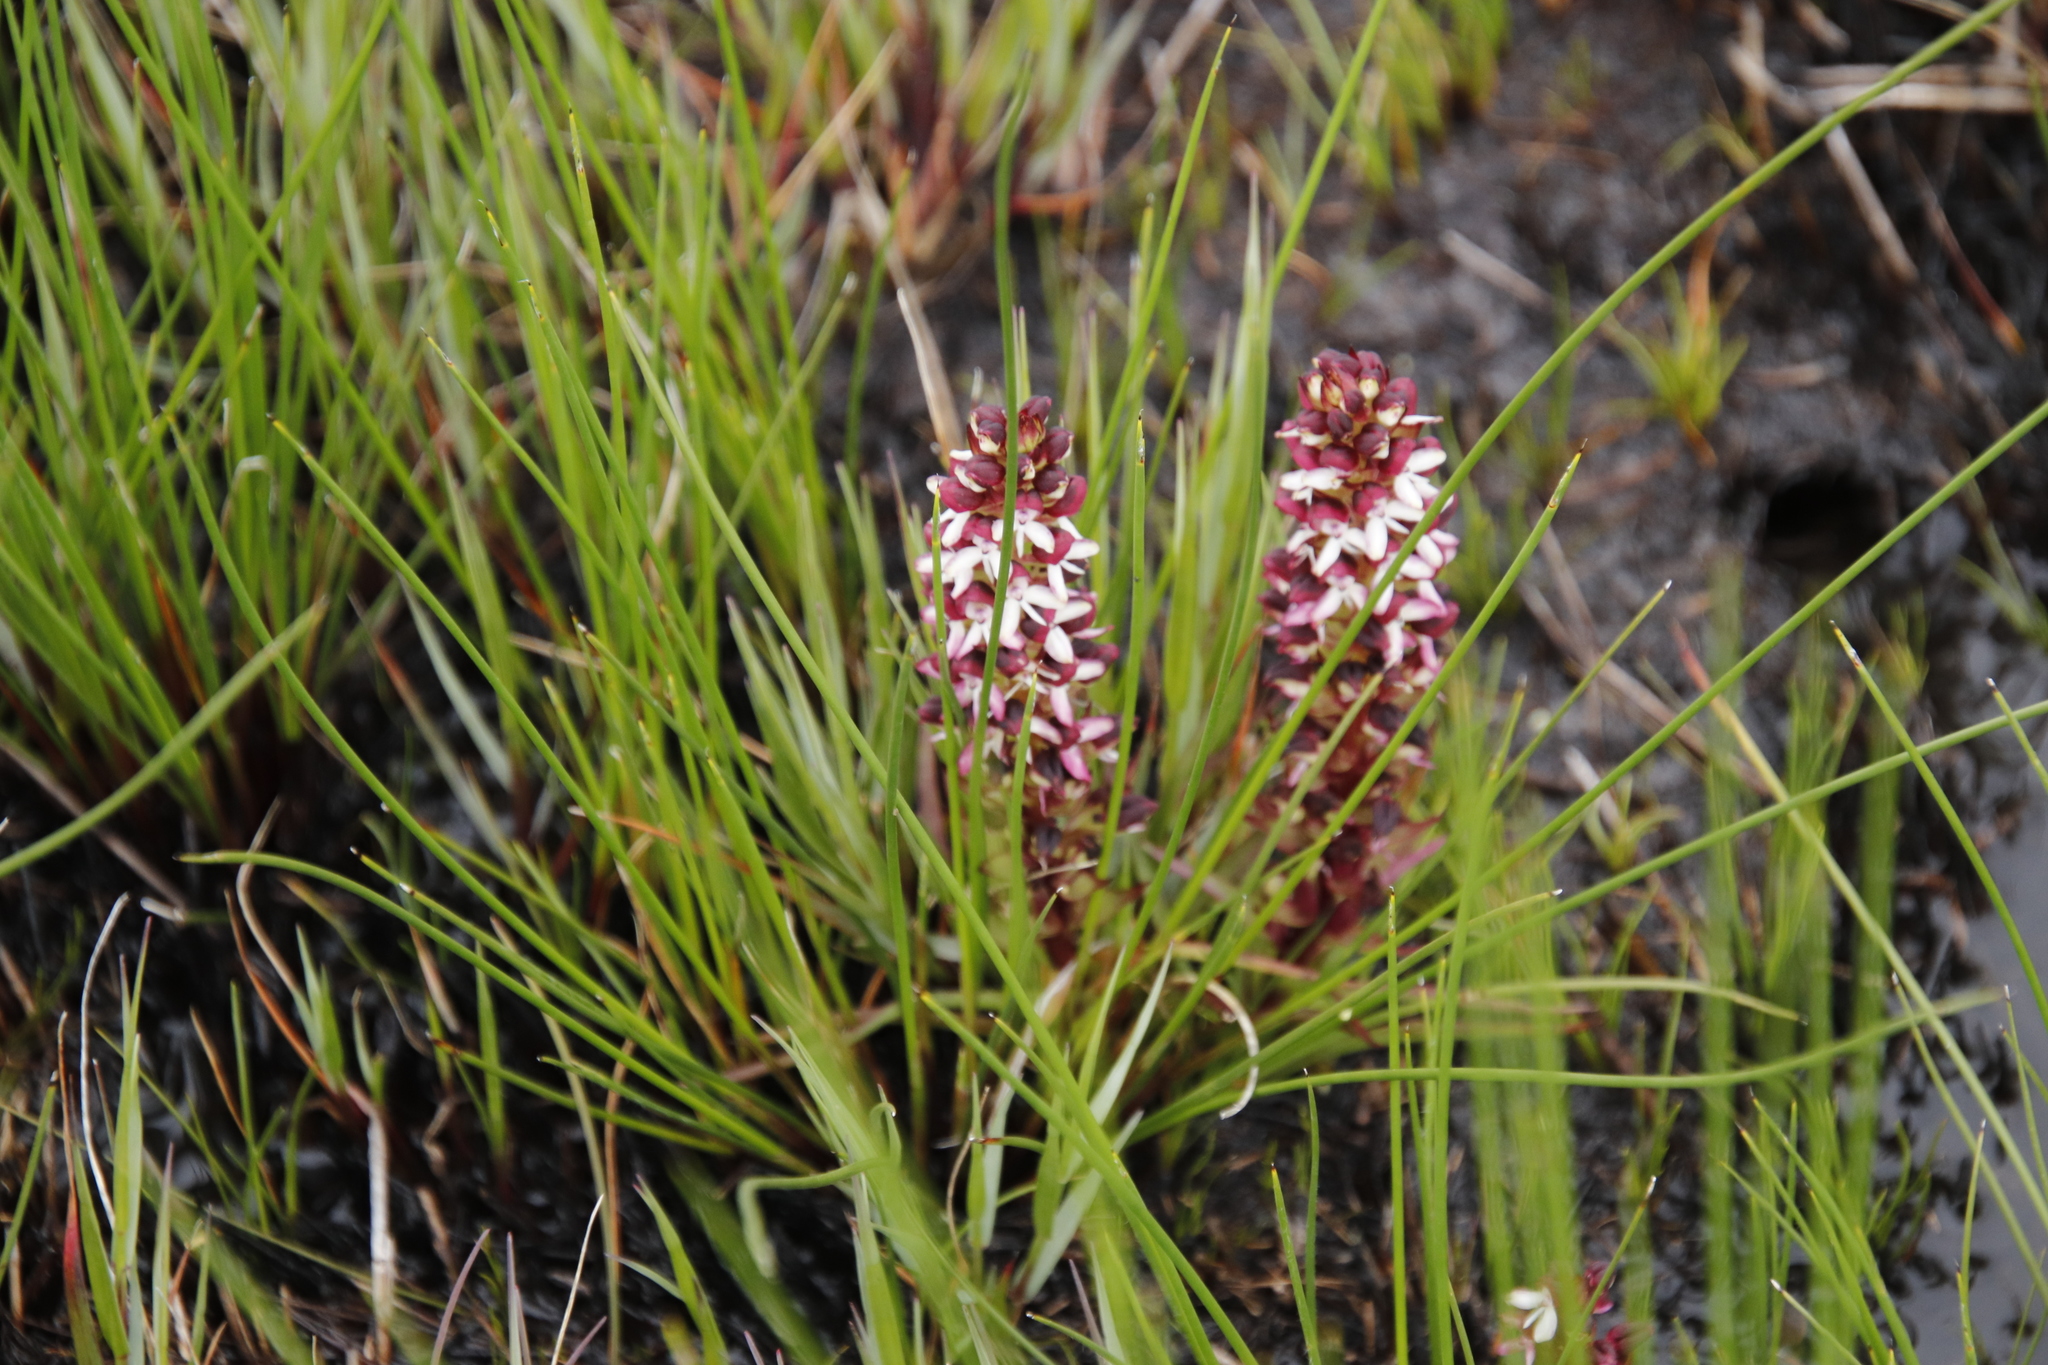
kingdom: Plantae
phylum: Tracheophyta
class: Liliopsida
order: Asparagales
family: Orchidaceae
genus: Disa
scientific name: Disa albomagentea
